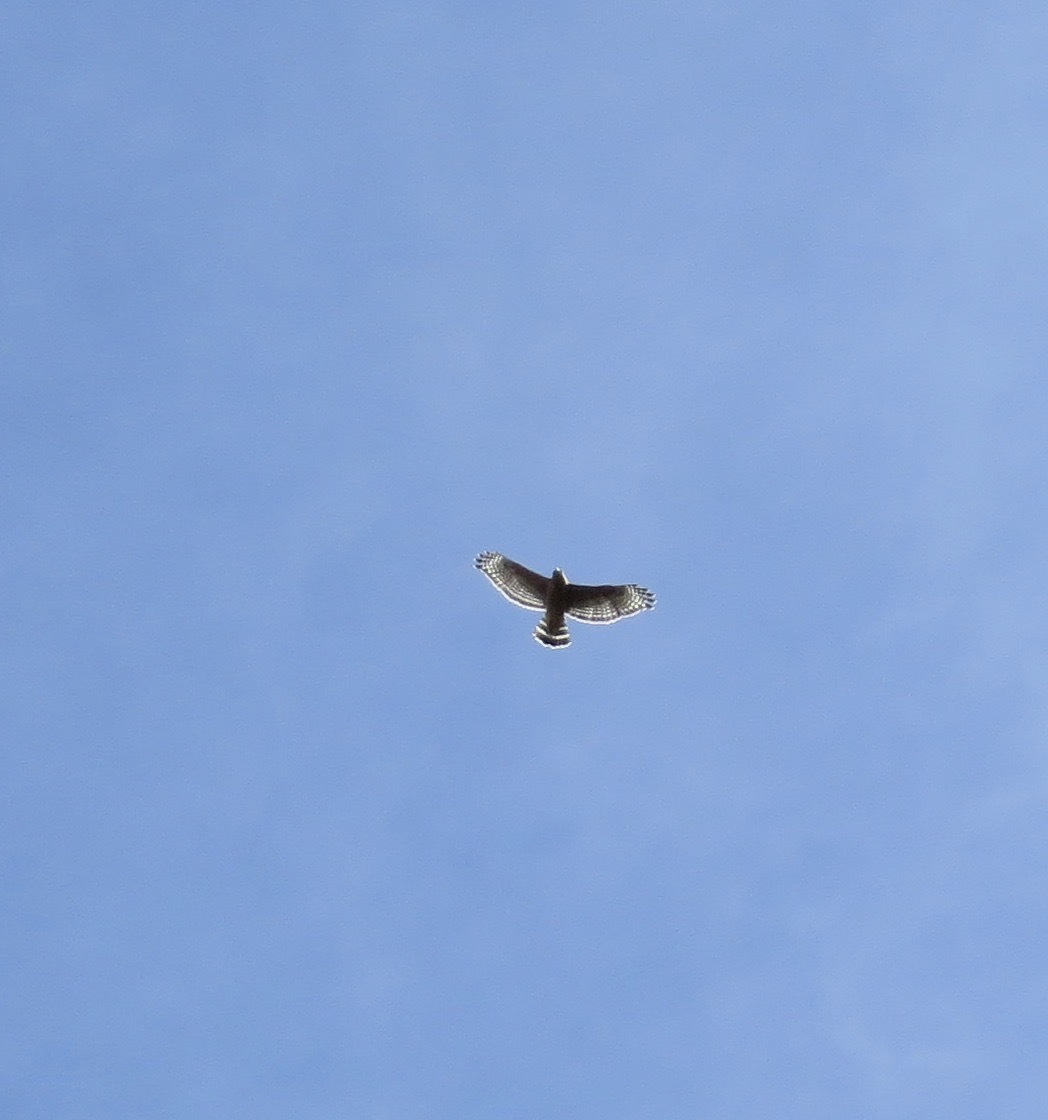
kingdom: Animalia
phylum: Chordata
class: Aves
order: Accipitriformes
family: Accipitridae
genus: Buteo
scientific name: Buteo lineatus
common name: Red-shouldered hawk
